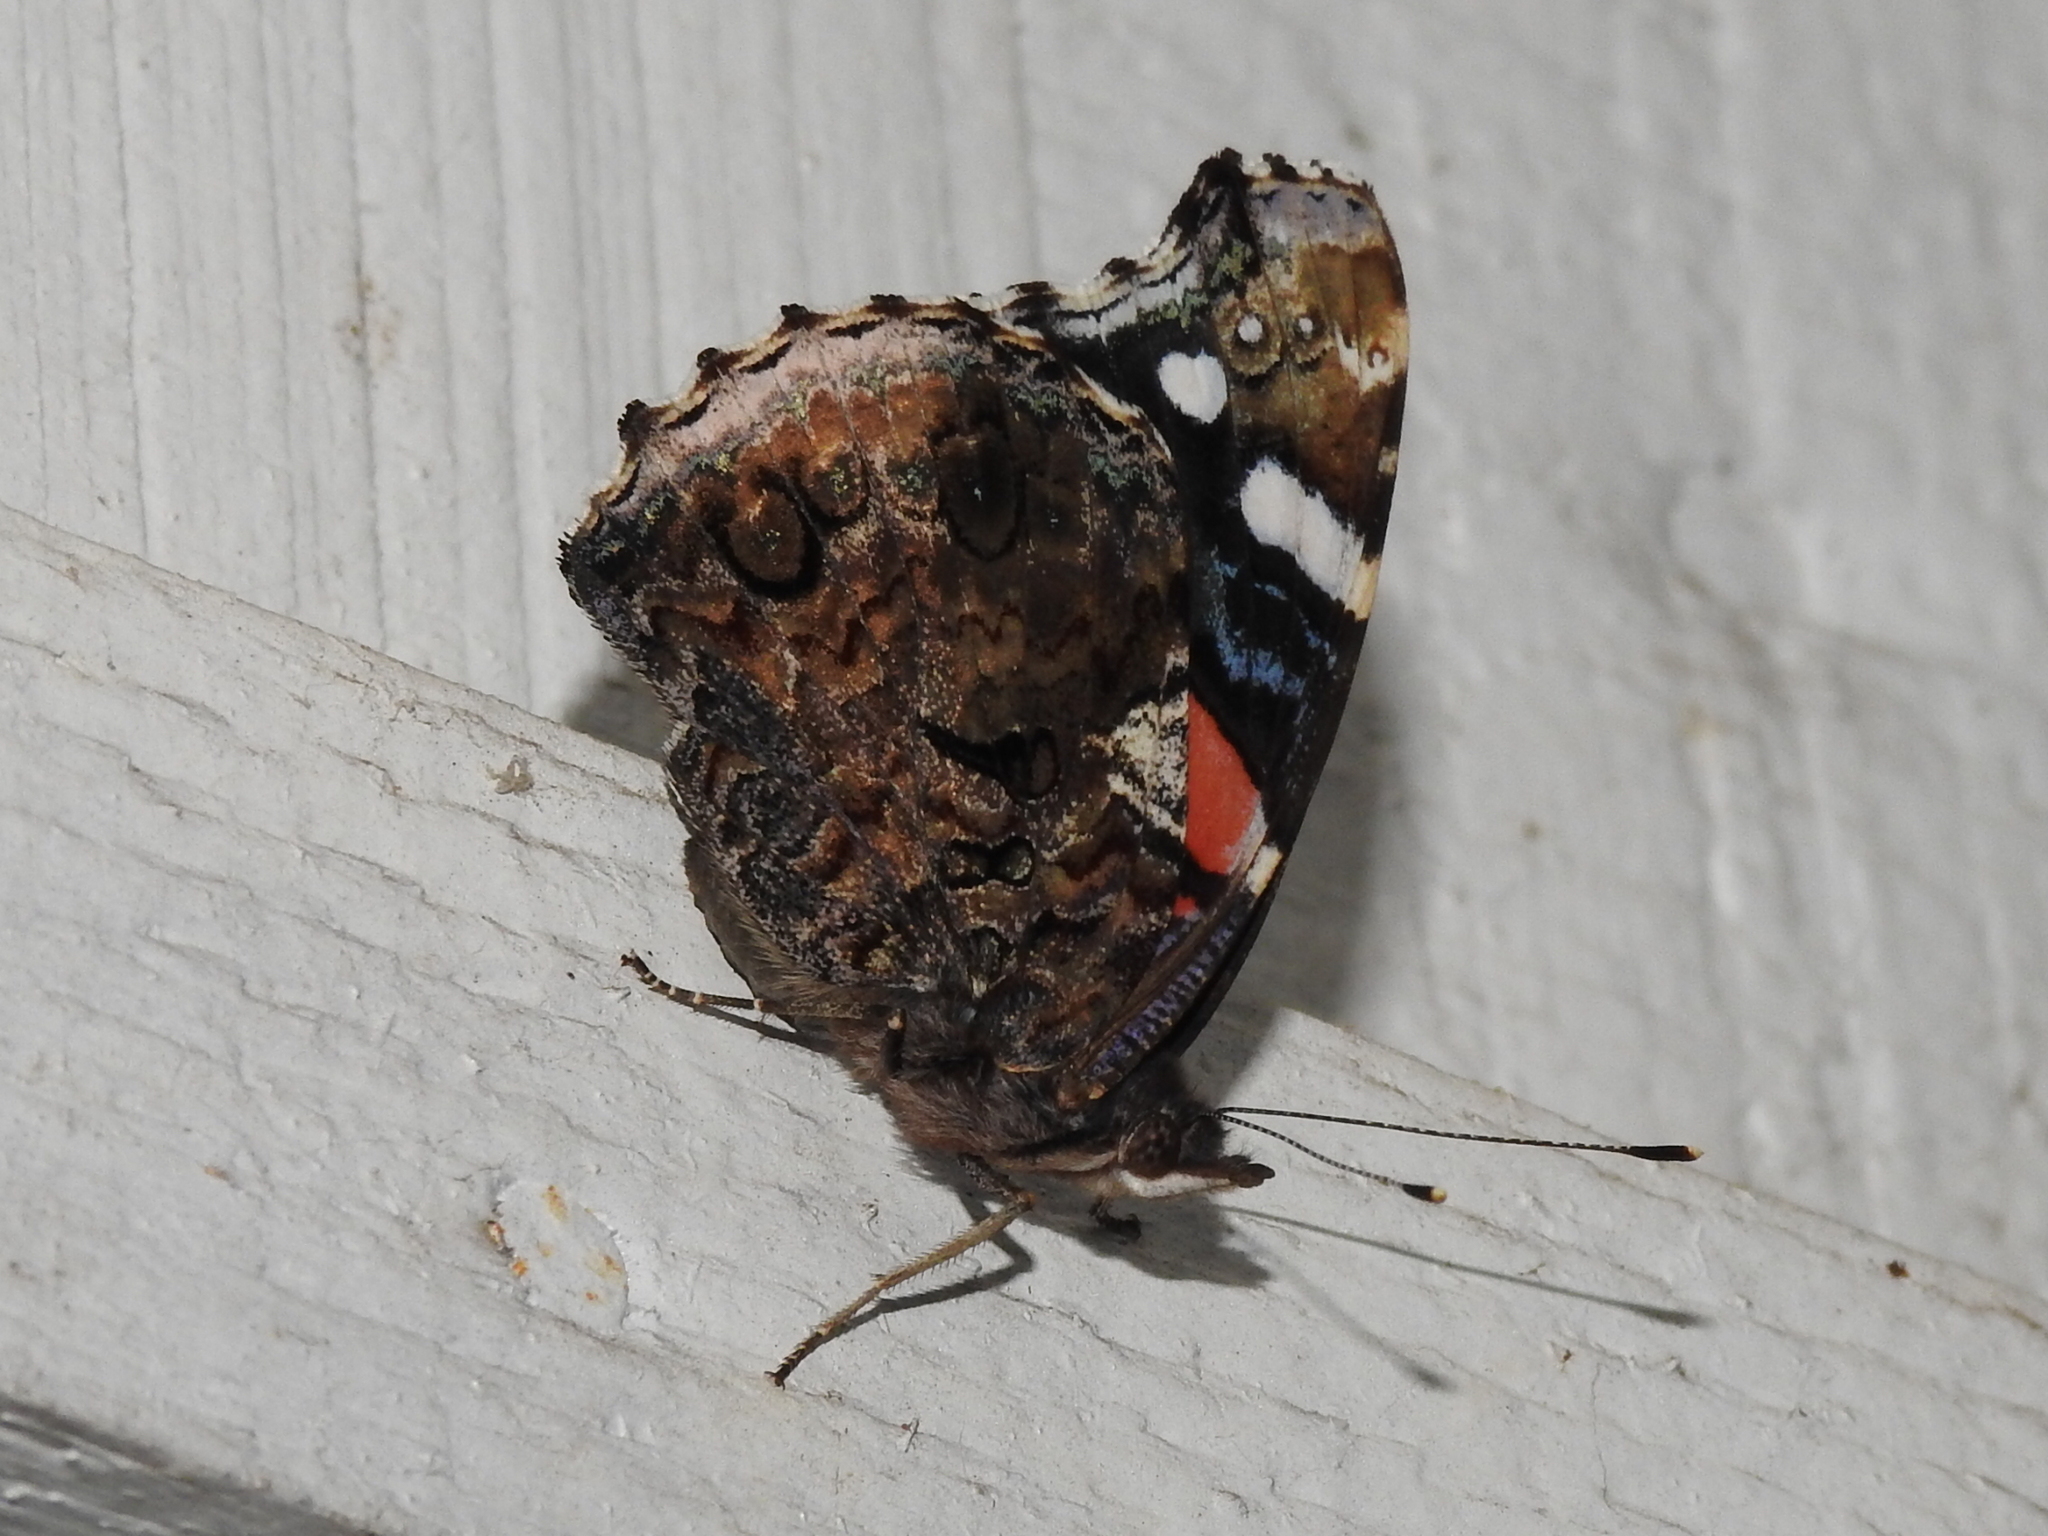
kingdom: Animalia
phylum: Arthropoda
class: Insecta
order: Lepidoptera
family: Nymphalidae
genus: Vanessa
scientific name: Vanessa atalanta
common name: Red admiral
